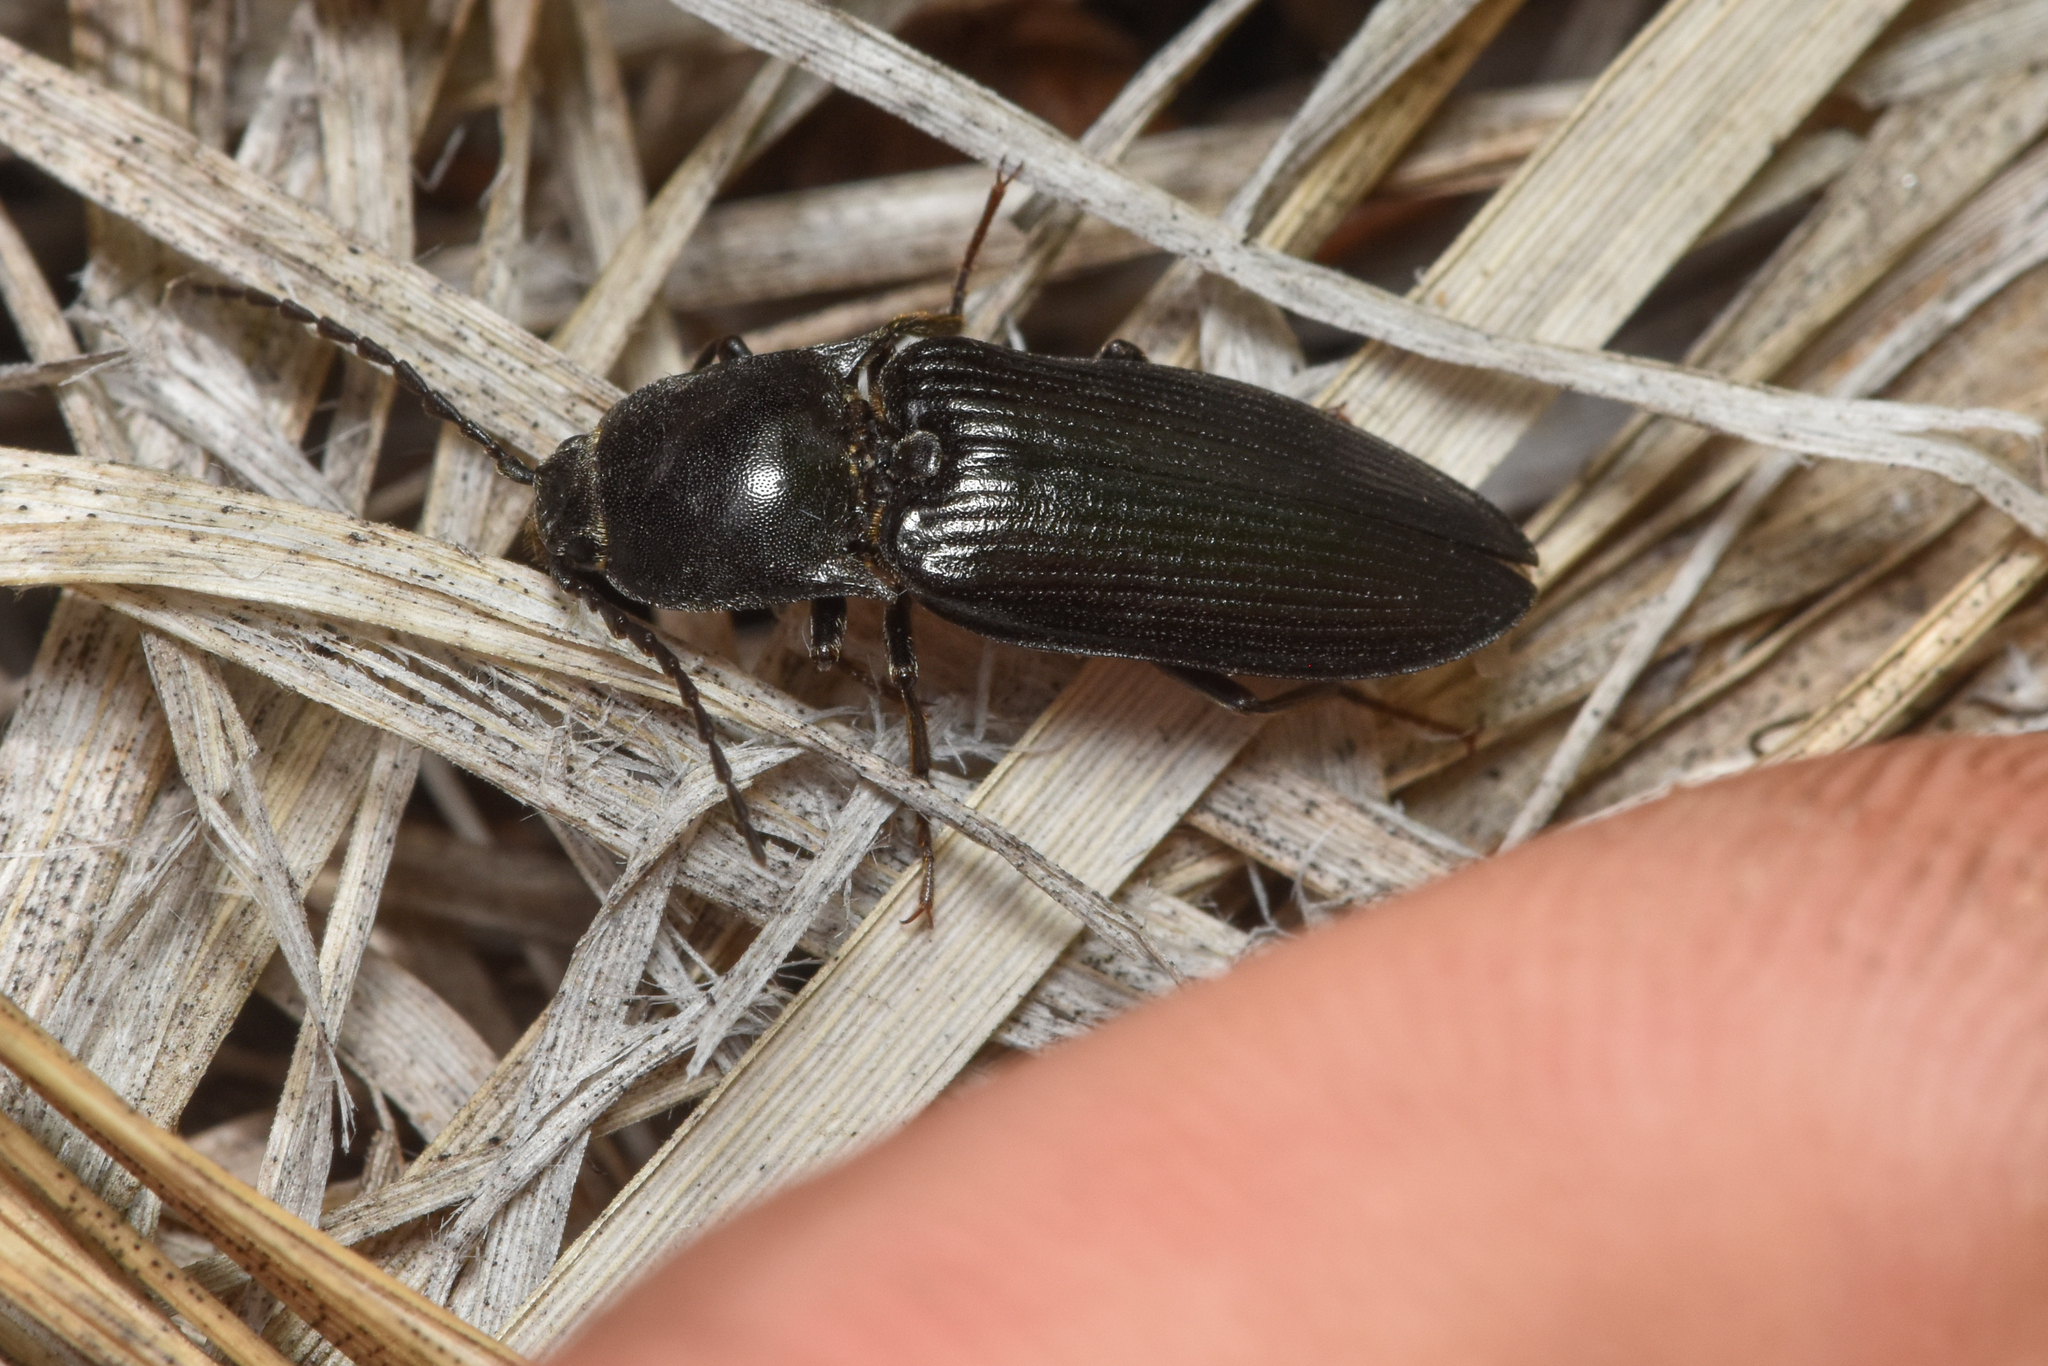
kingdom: Animalia
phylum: Arthropoda
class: Insecta
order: Coleoptera
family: Elateridae
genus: Tesolasomus
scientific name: Tesolasomus morulus
